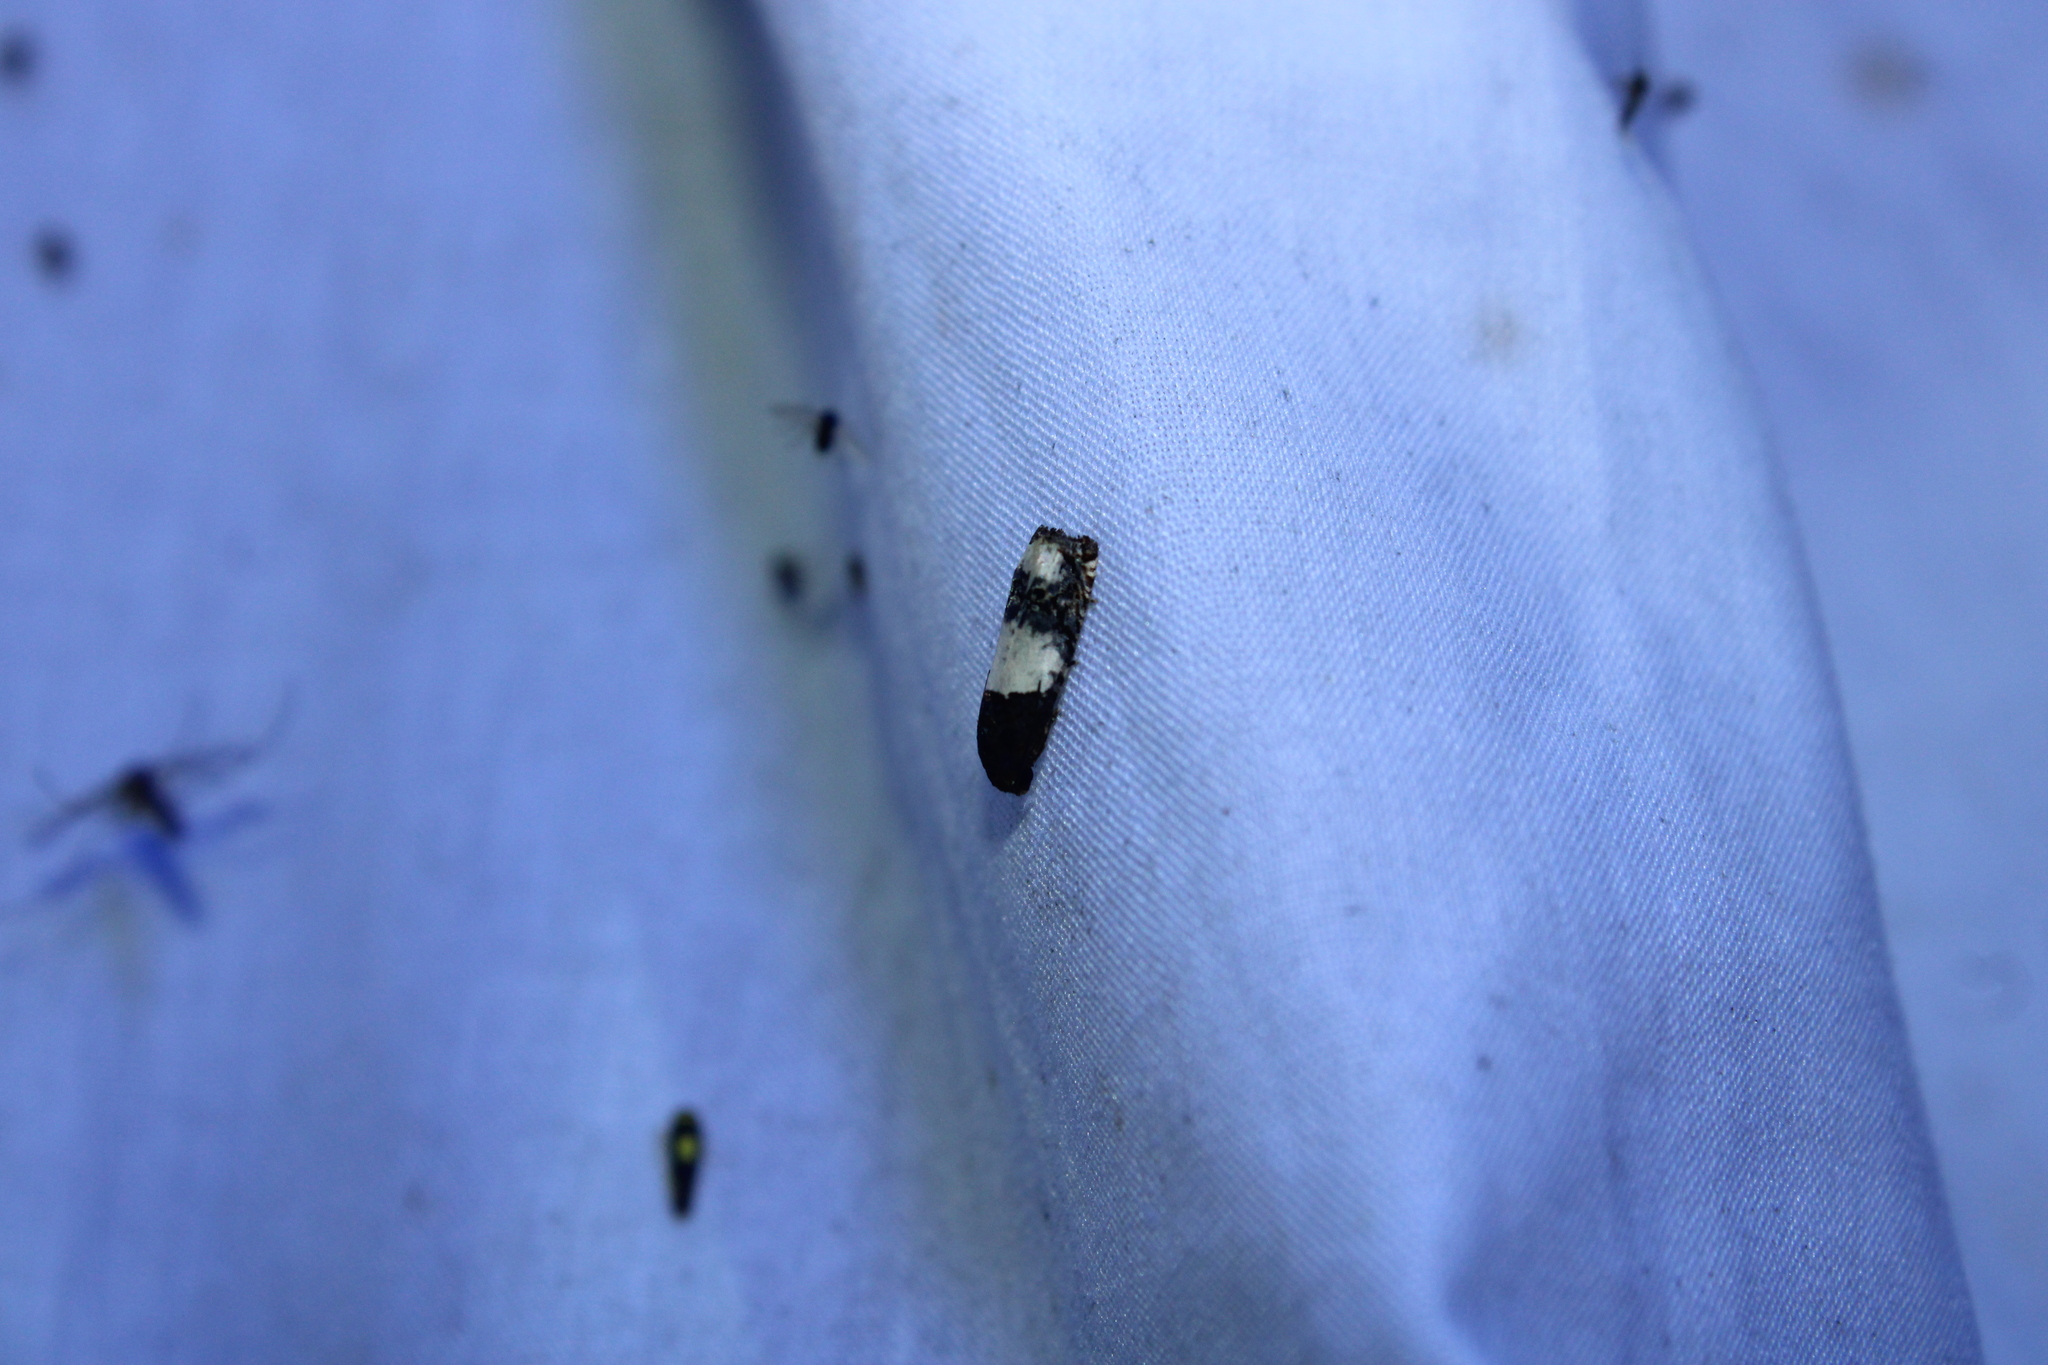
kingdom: Animalia
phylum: Arthropoda
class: Insecta
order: Lepidoptera
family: Tortricidae
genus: Epiblema
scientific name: Epiblema scudderiana
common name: Goldenrod gall moth
